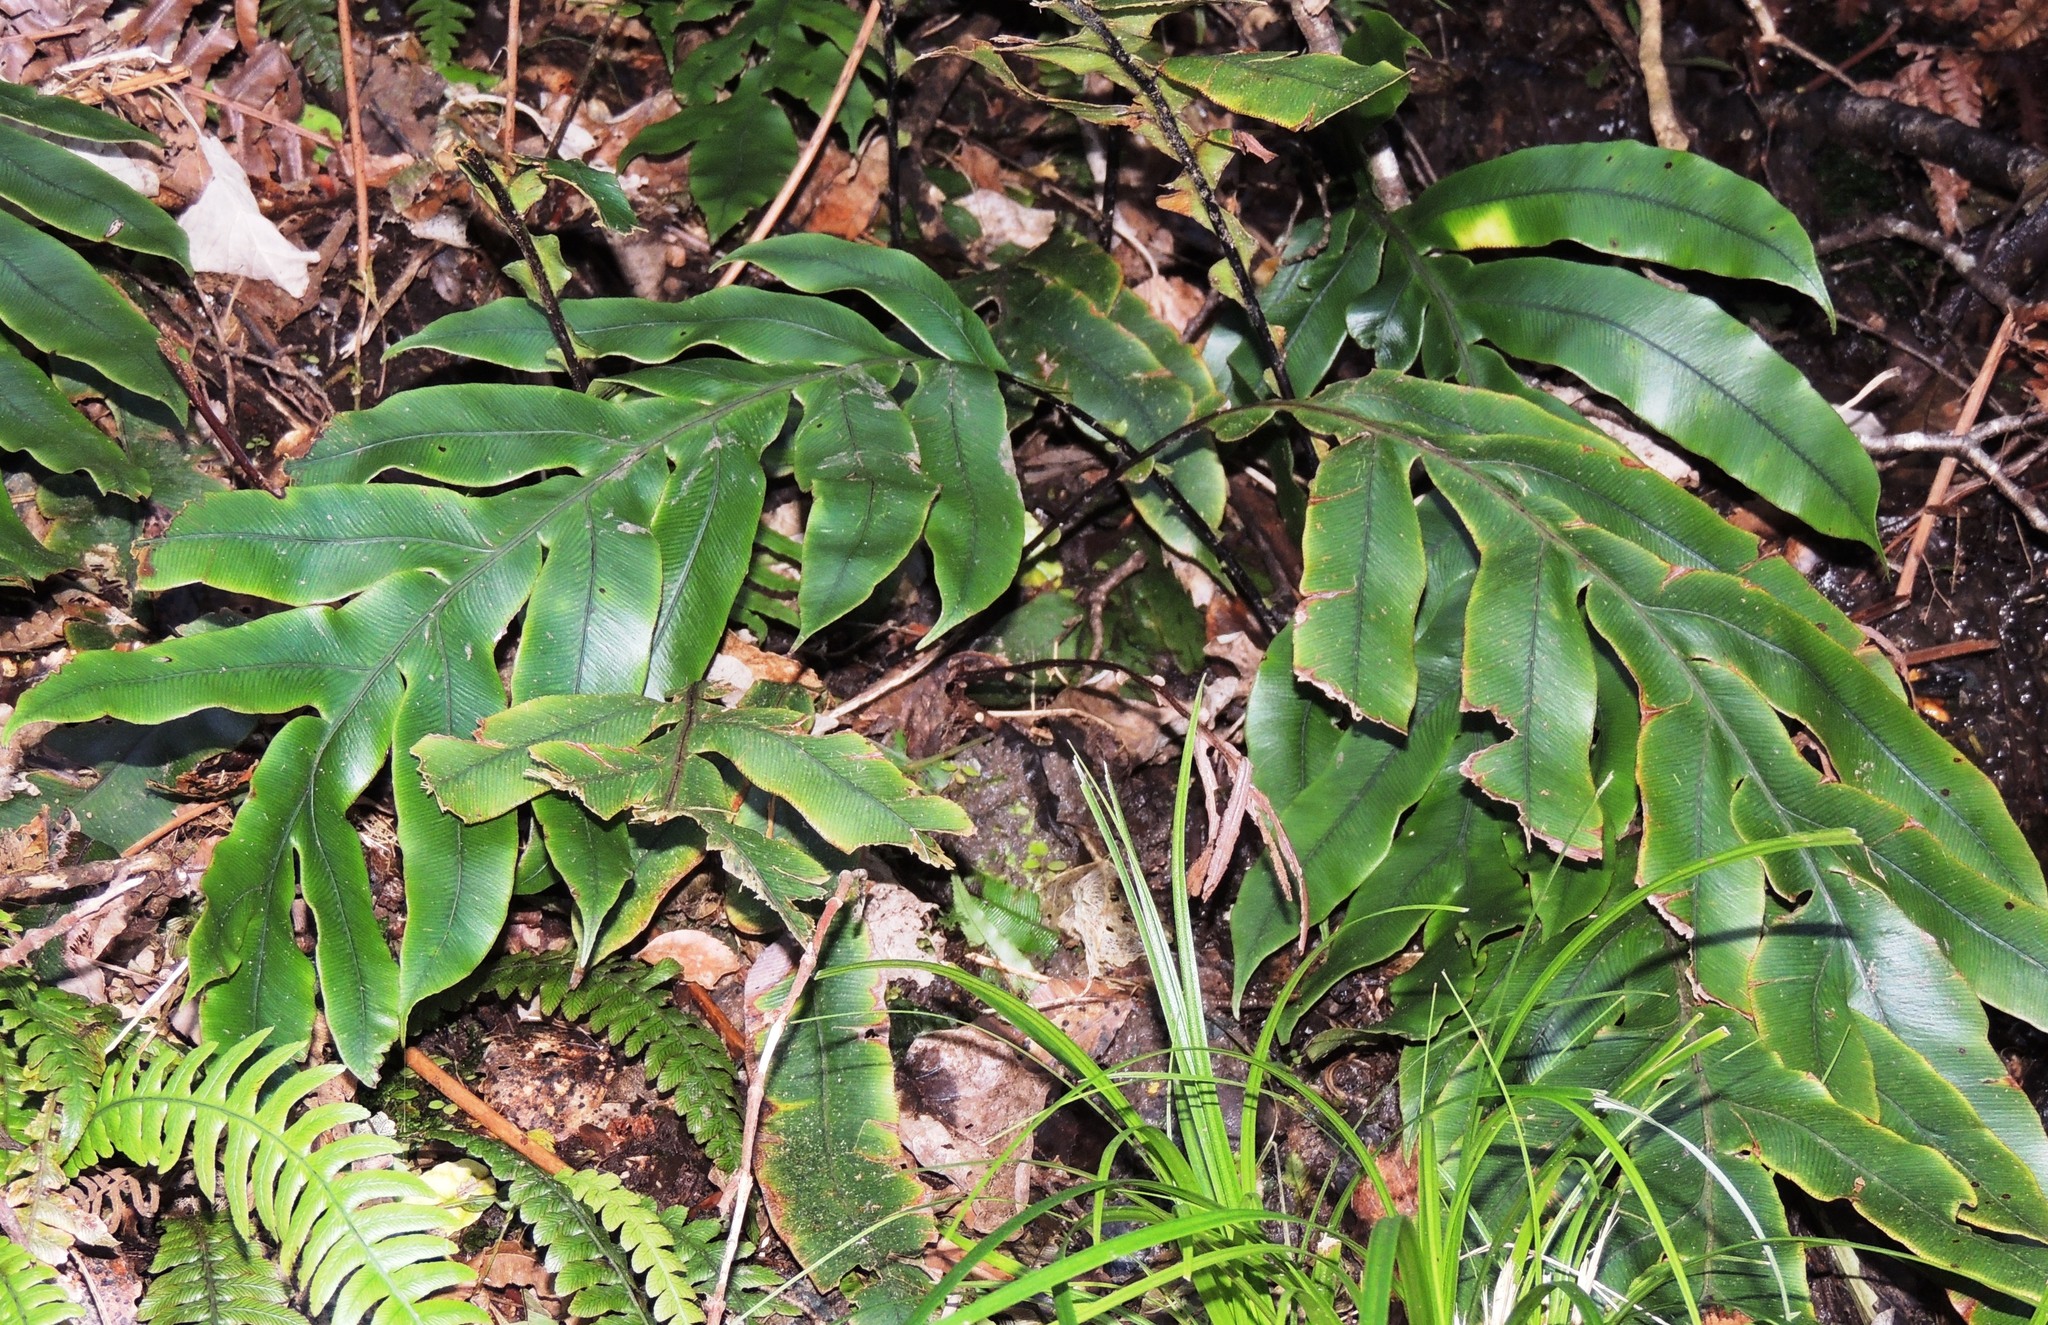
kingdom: Plantae
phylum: Tracheophyta
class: Polypodiopsida
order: Polypodiales
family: Blechnaceae
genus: Austroblechnum
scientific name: Austroblechnum colensoi
